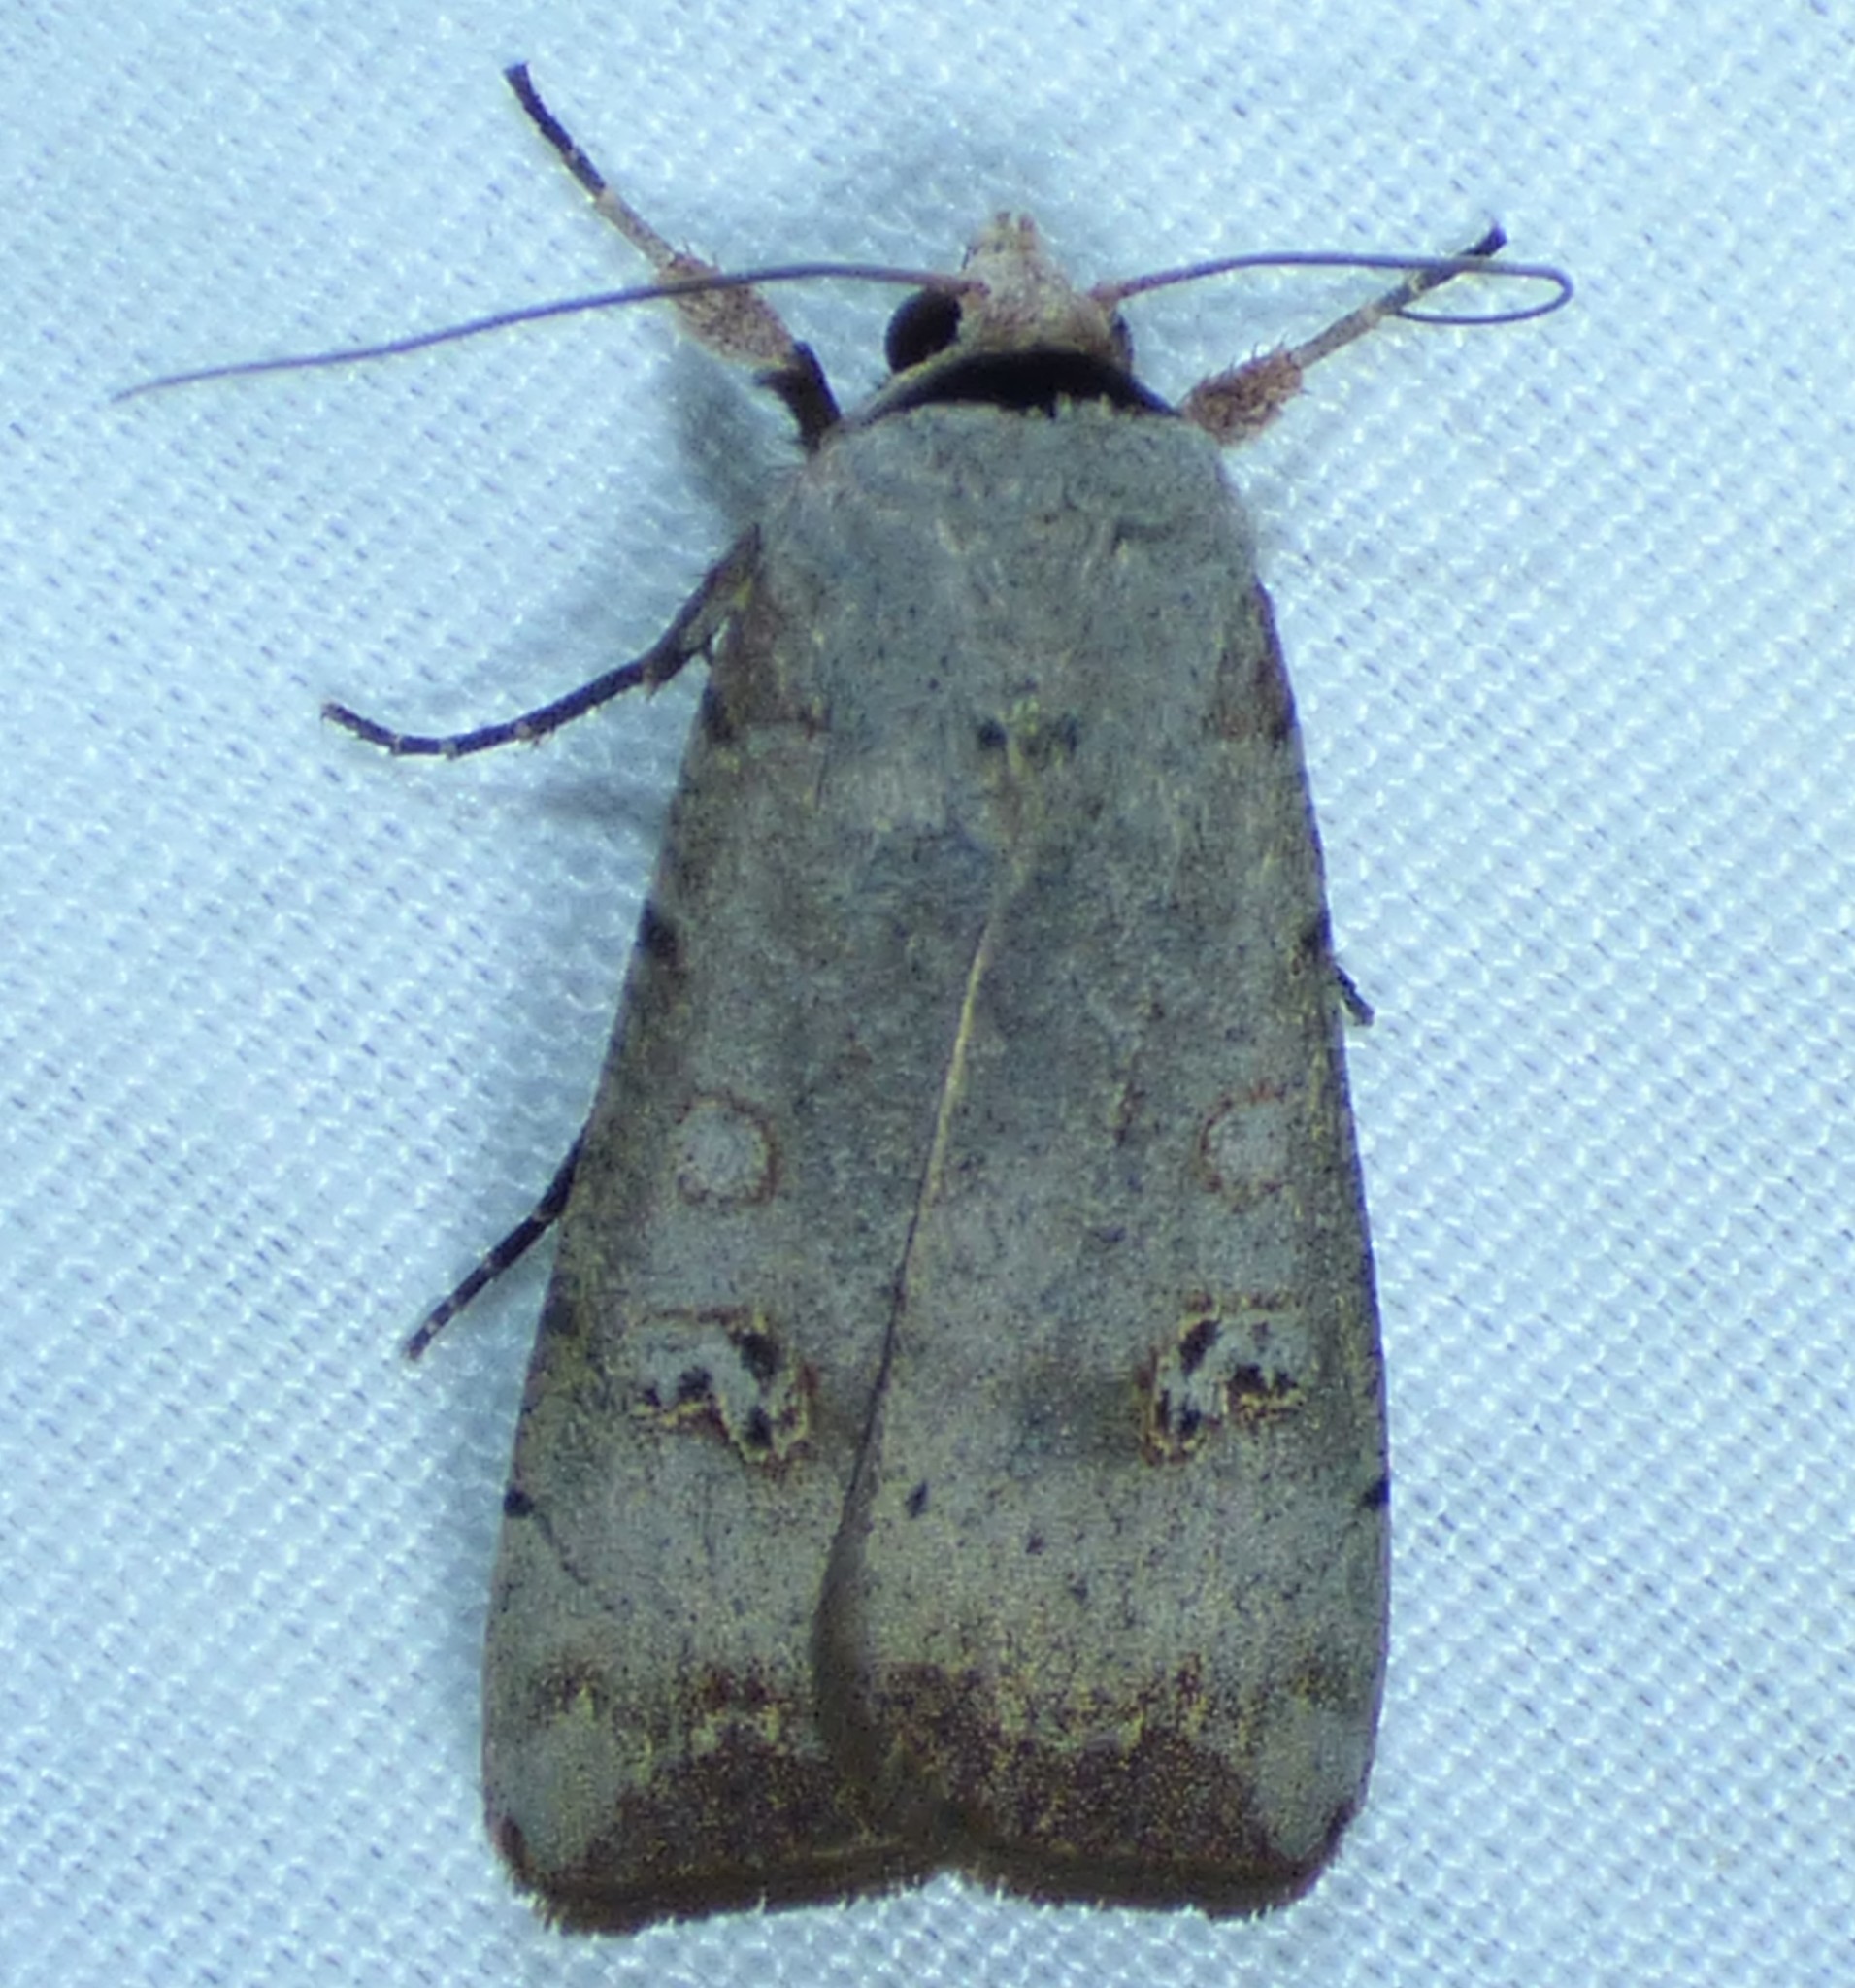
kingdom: Animalia
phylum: Arthropoda
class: Insecta
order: Lepidoptera
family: Noctuidae
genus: Anicla
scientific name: Anicla infecta
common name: Green cutworm
